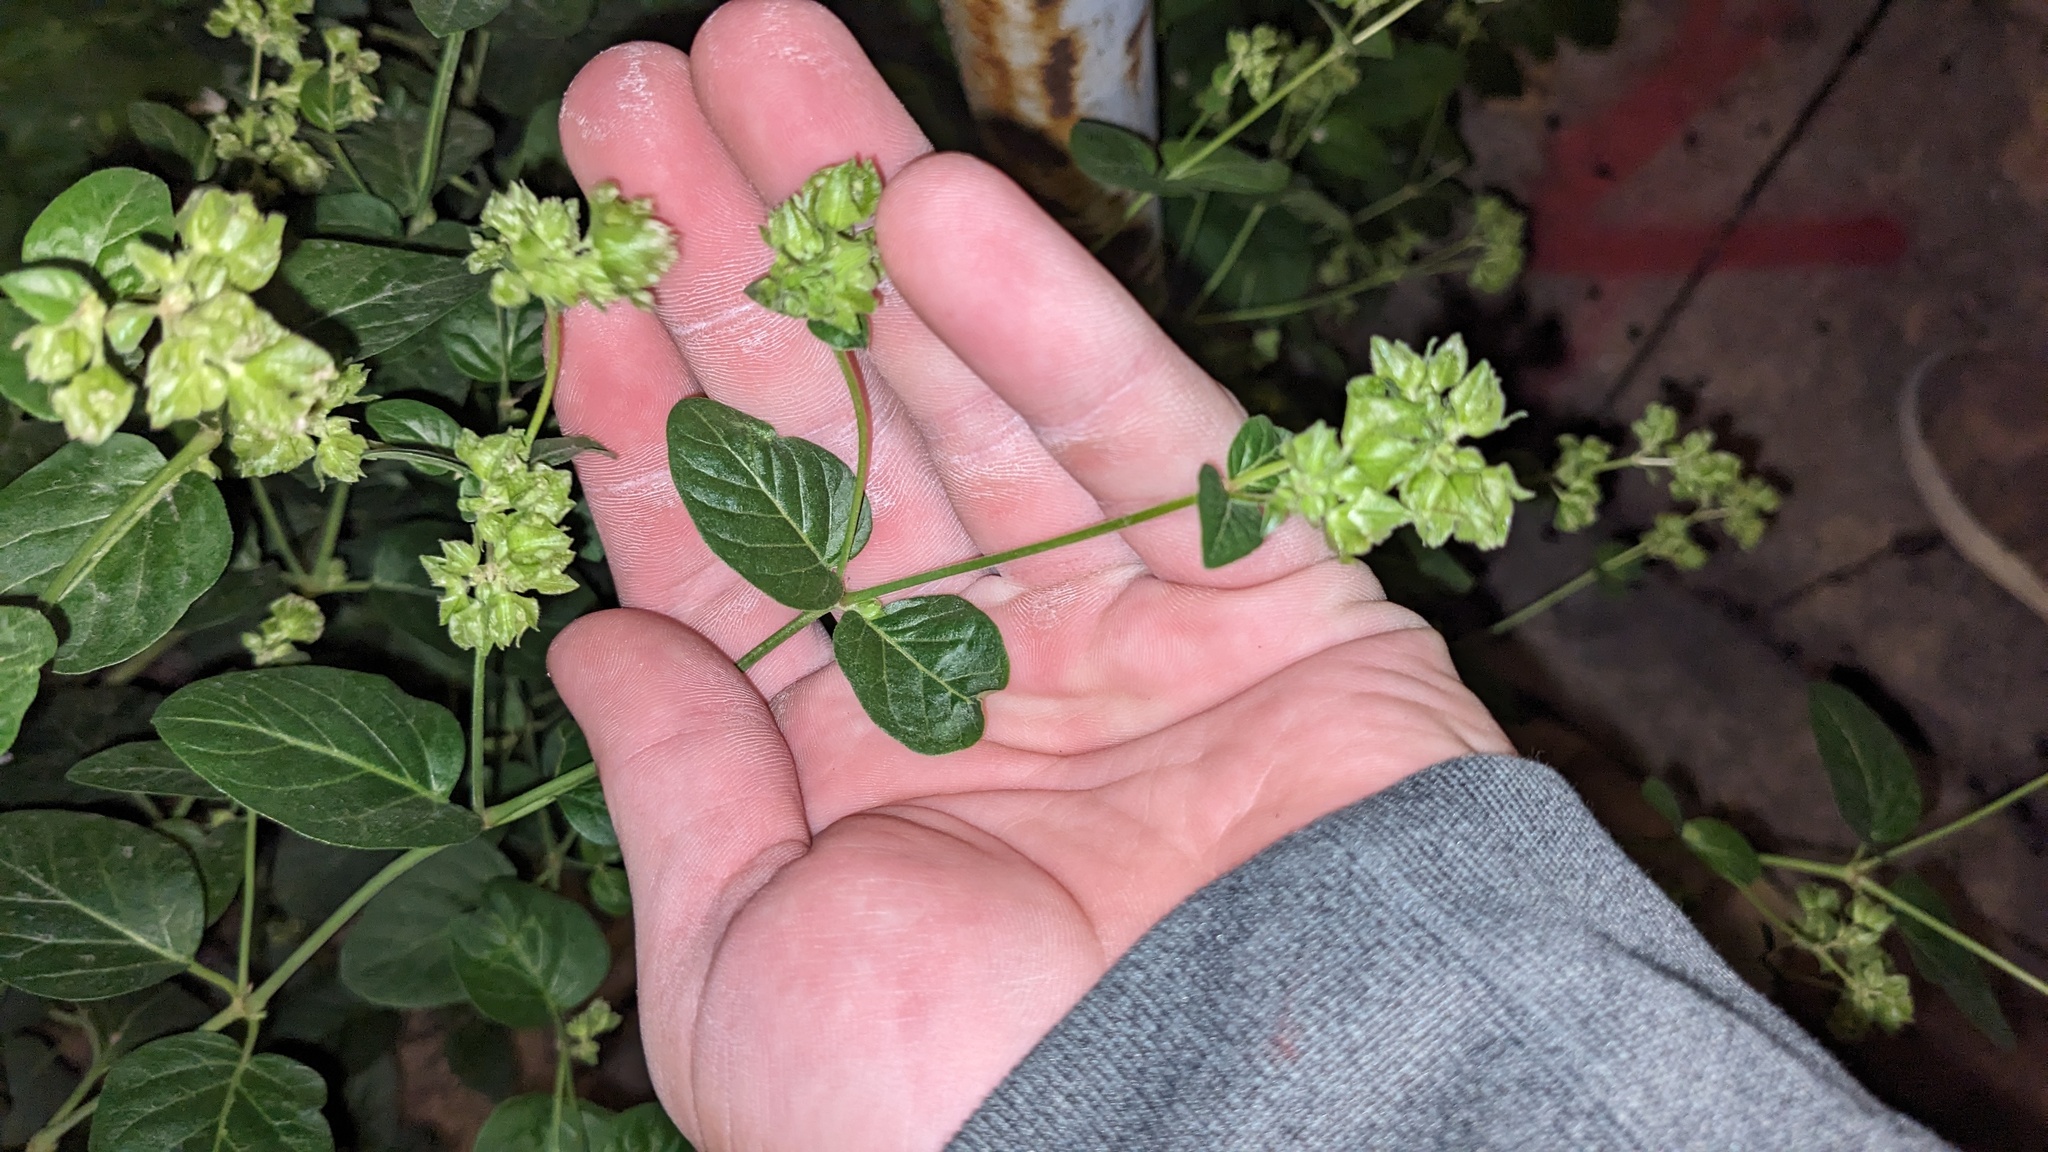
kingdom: Plantae
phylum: Tracheophyta
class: Magnoliopsida
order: Caryophyllales
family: Nyctaginaceae
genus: Mirabilis
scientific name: Mirabilis nyctaginea
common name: Umbrella wort
